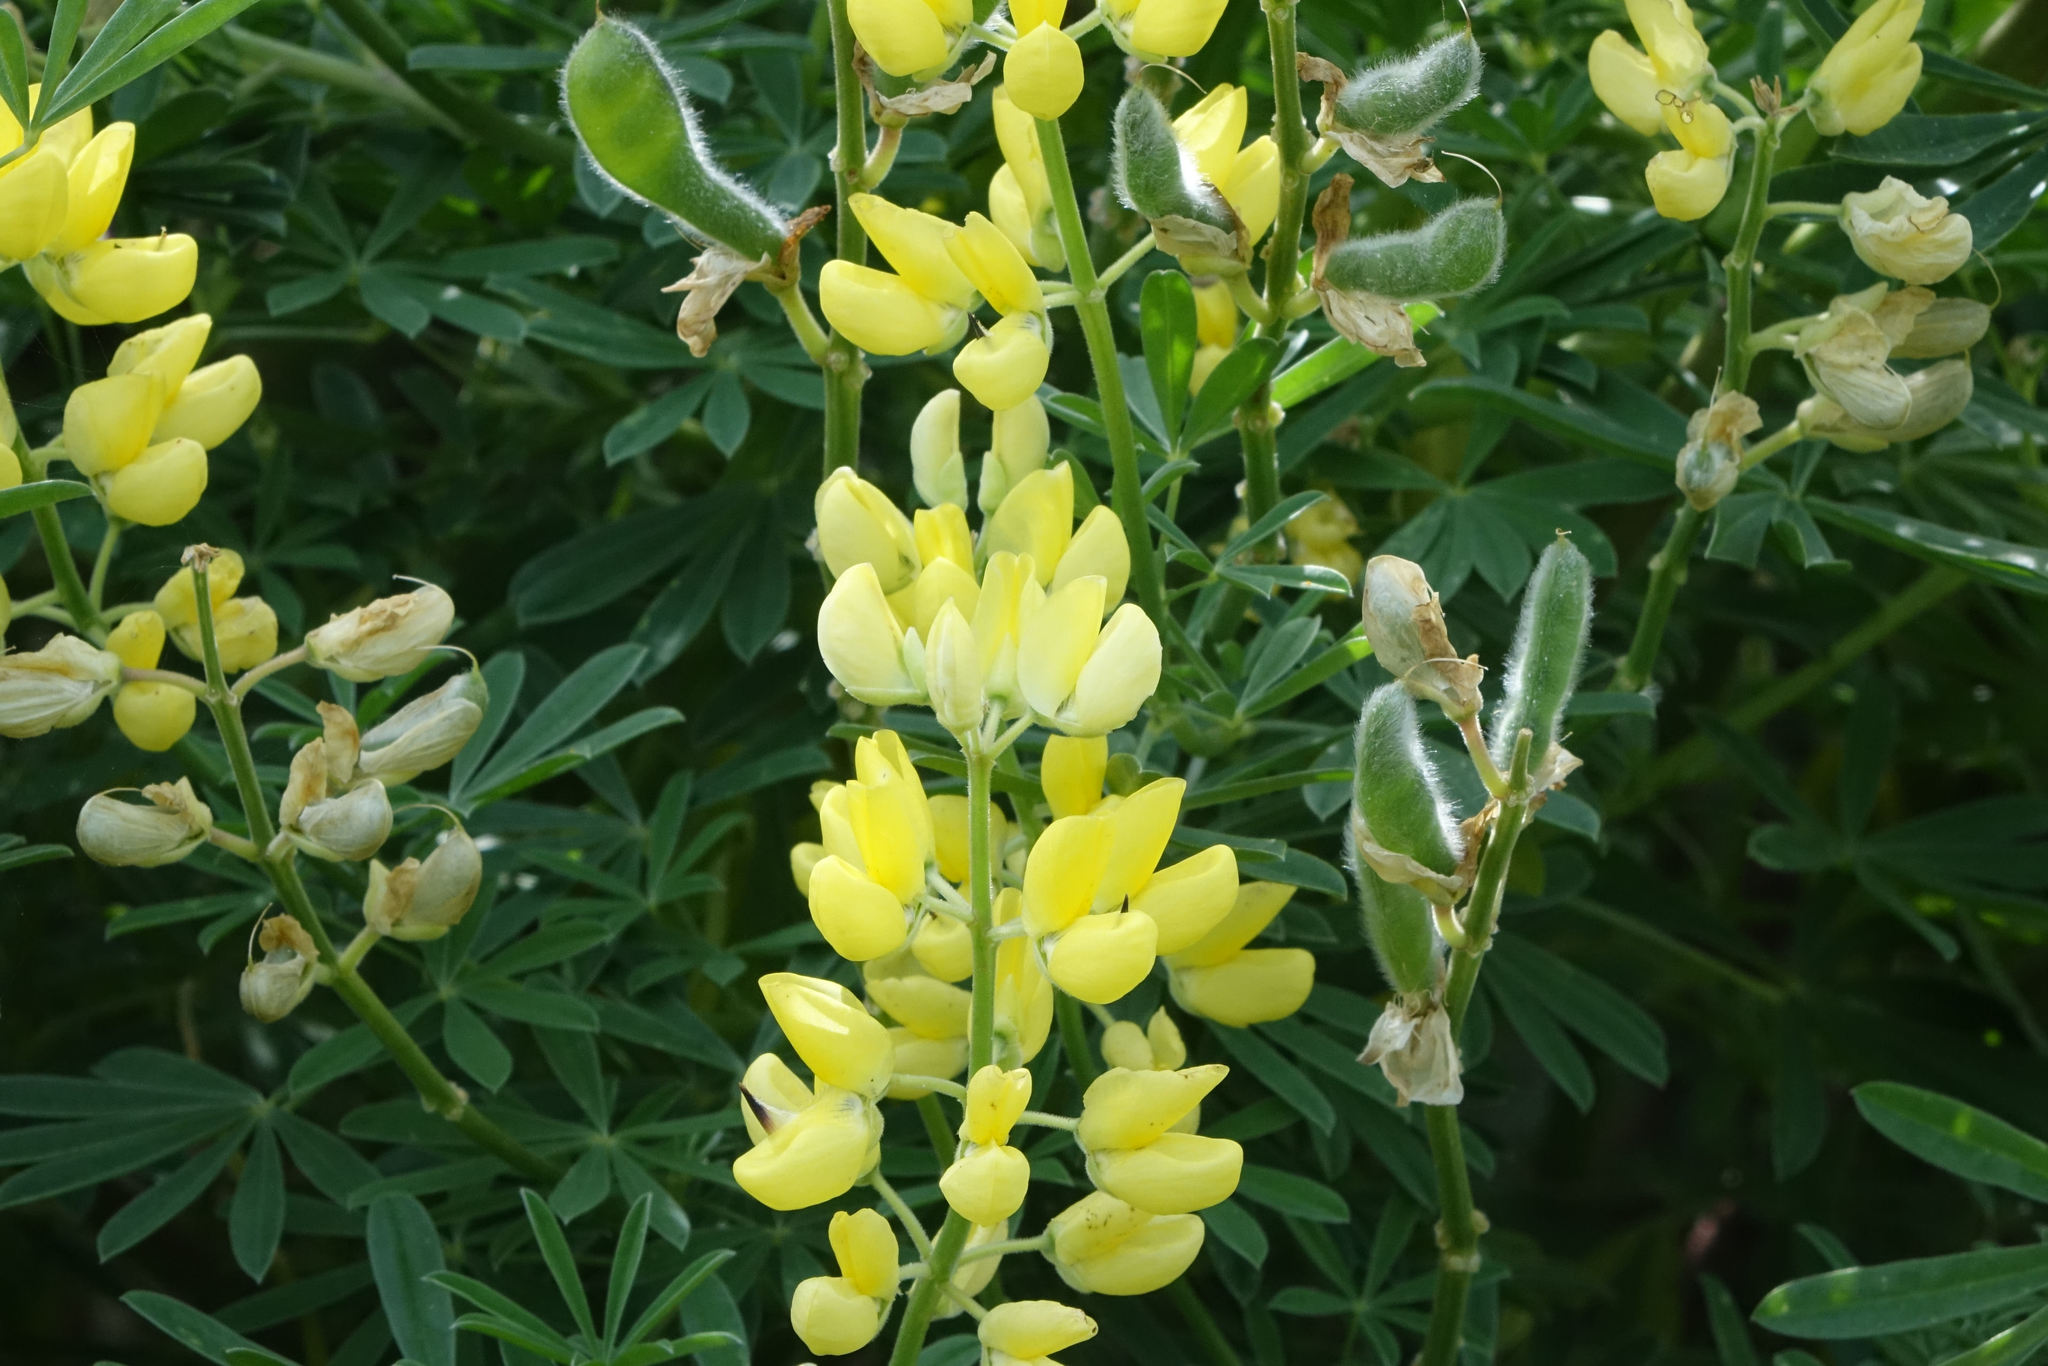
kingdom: Plantae
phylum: Tracheophyta
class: Magnoliopsida
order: Fabales
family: Fabaceae
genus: Lupinus
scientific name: Lupinus arboreus
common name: Yellow bush lupine
